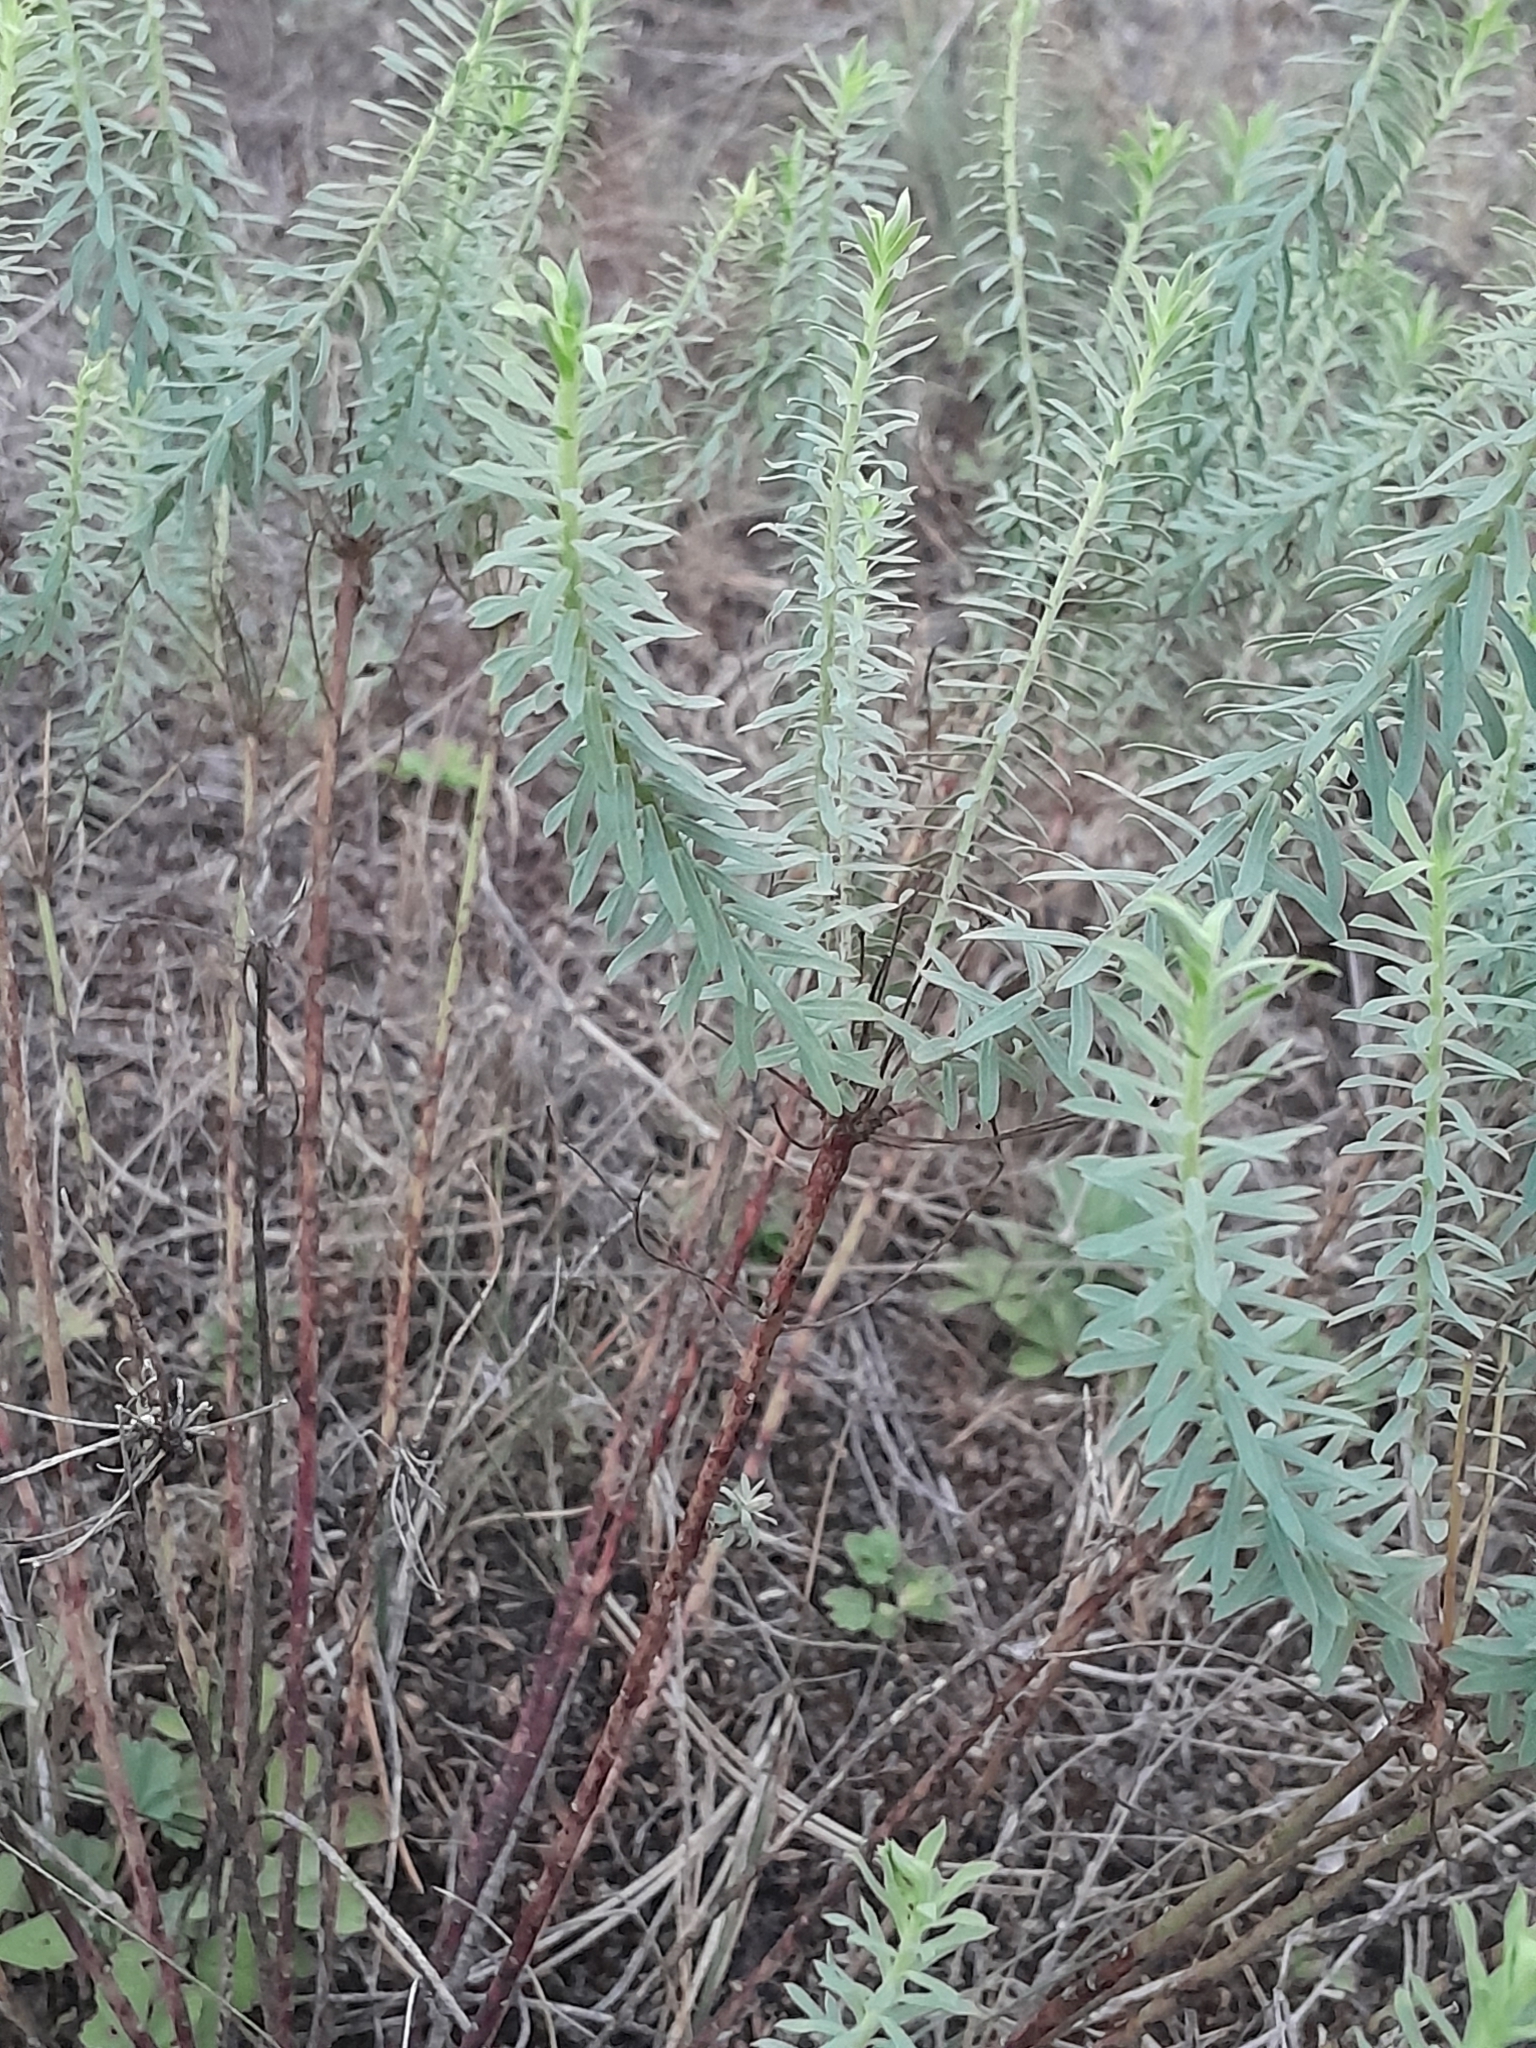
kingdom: Plantae
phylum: Tracheophyta
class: Magnoliopsida
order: Malpighiales
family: Euphorbiaceae
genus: Euphorbia
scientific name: Euphorbia seguieriana
